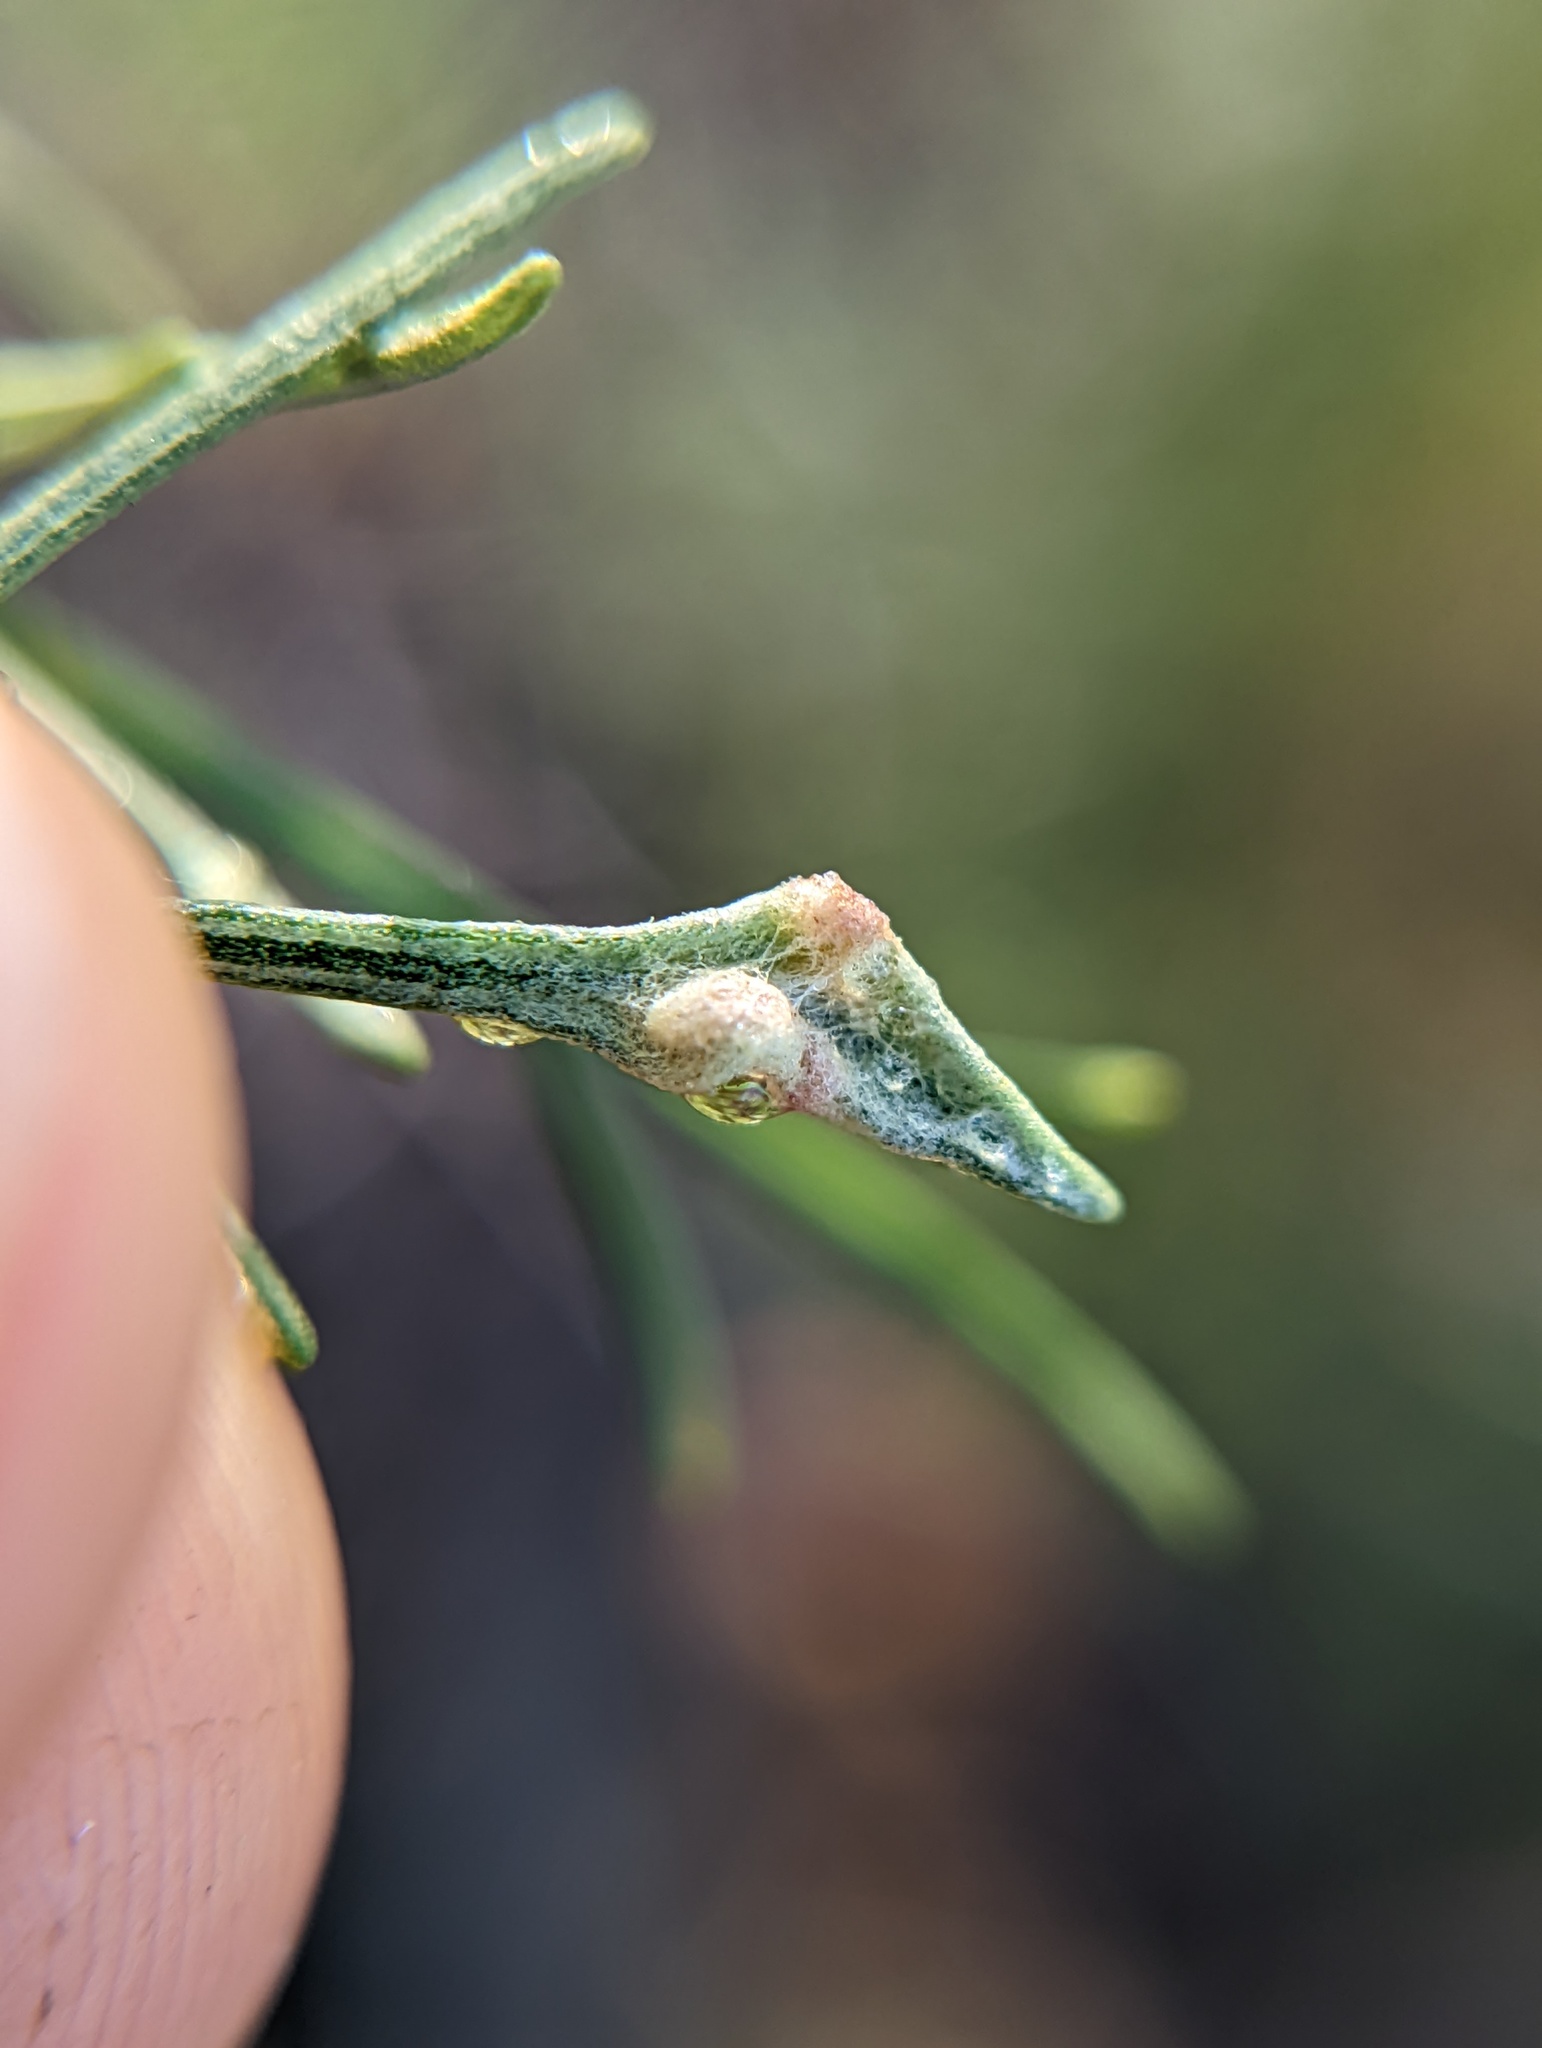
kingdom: Animalia
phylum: Arthropoda
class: Arachnida
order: Trombidiformes
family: Eriophyidae
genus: Aceria
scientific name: Aceria
